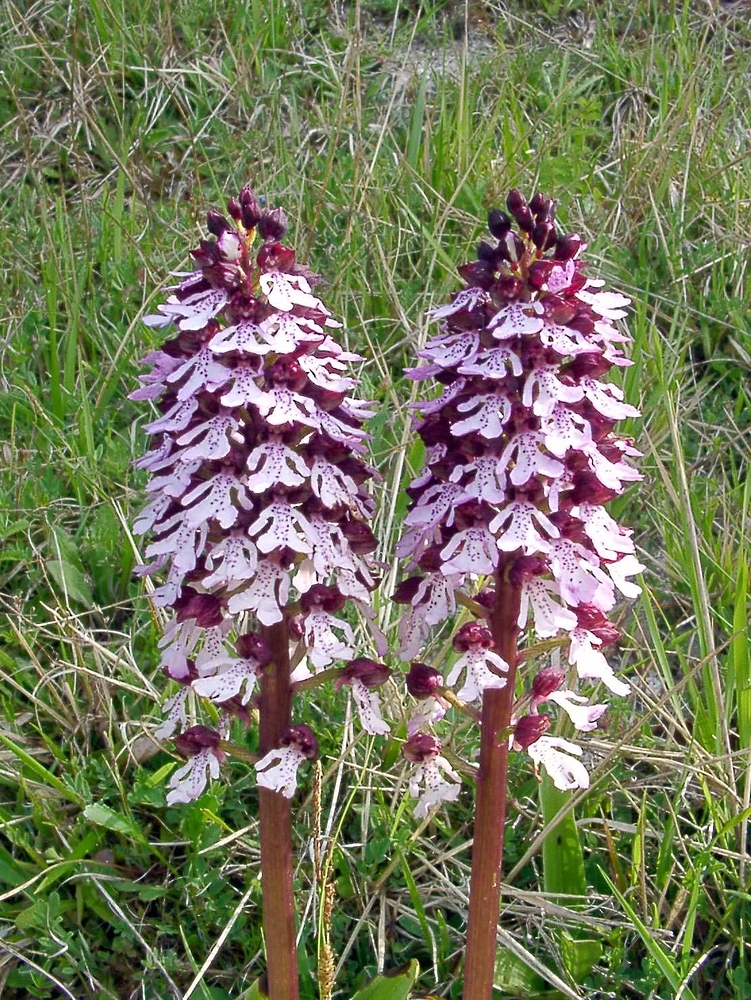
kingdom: Plantae
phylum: Tracheophyta
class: Liliopsida
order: Asparagales
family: Orchidaceae
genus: Orchis
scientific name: Orchis purpurea
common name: Lady orchid
